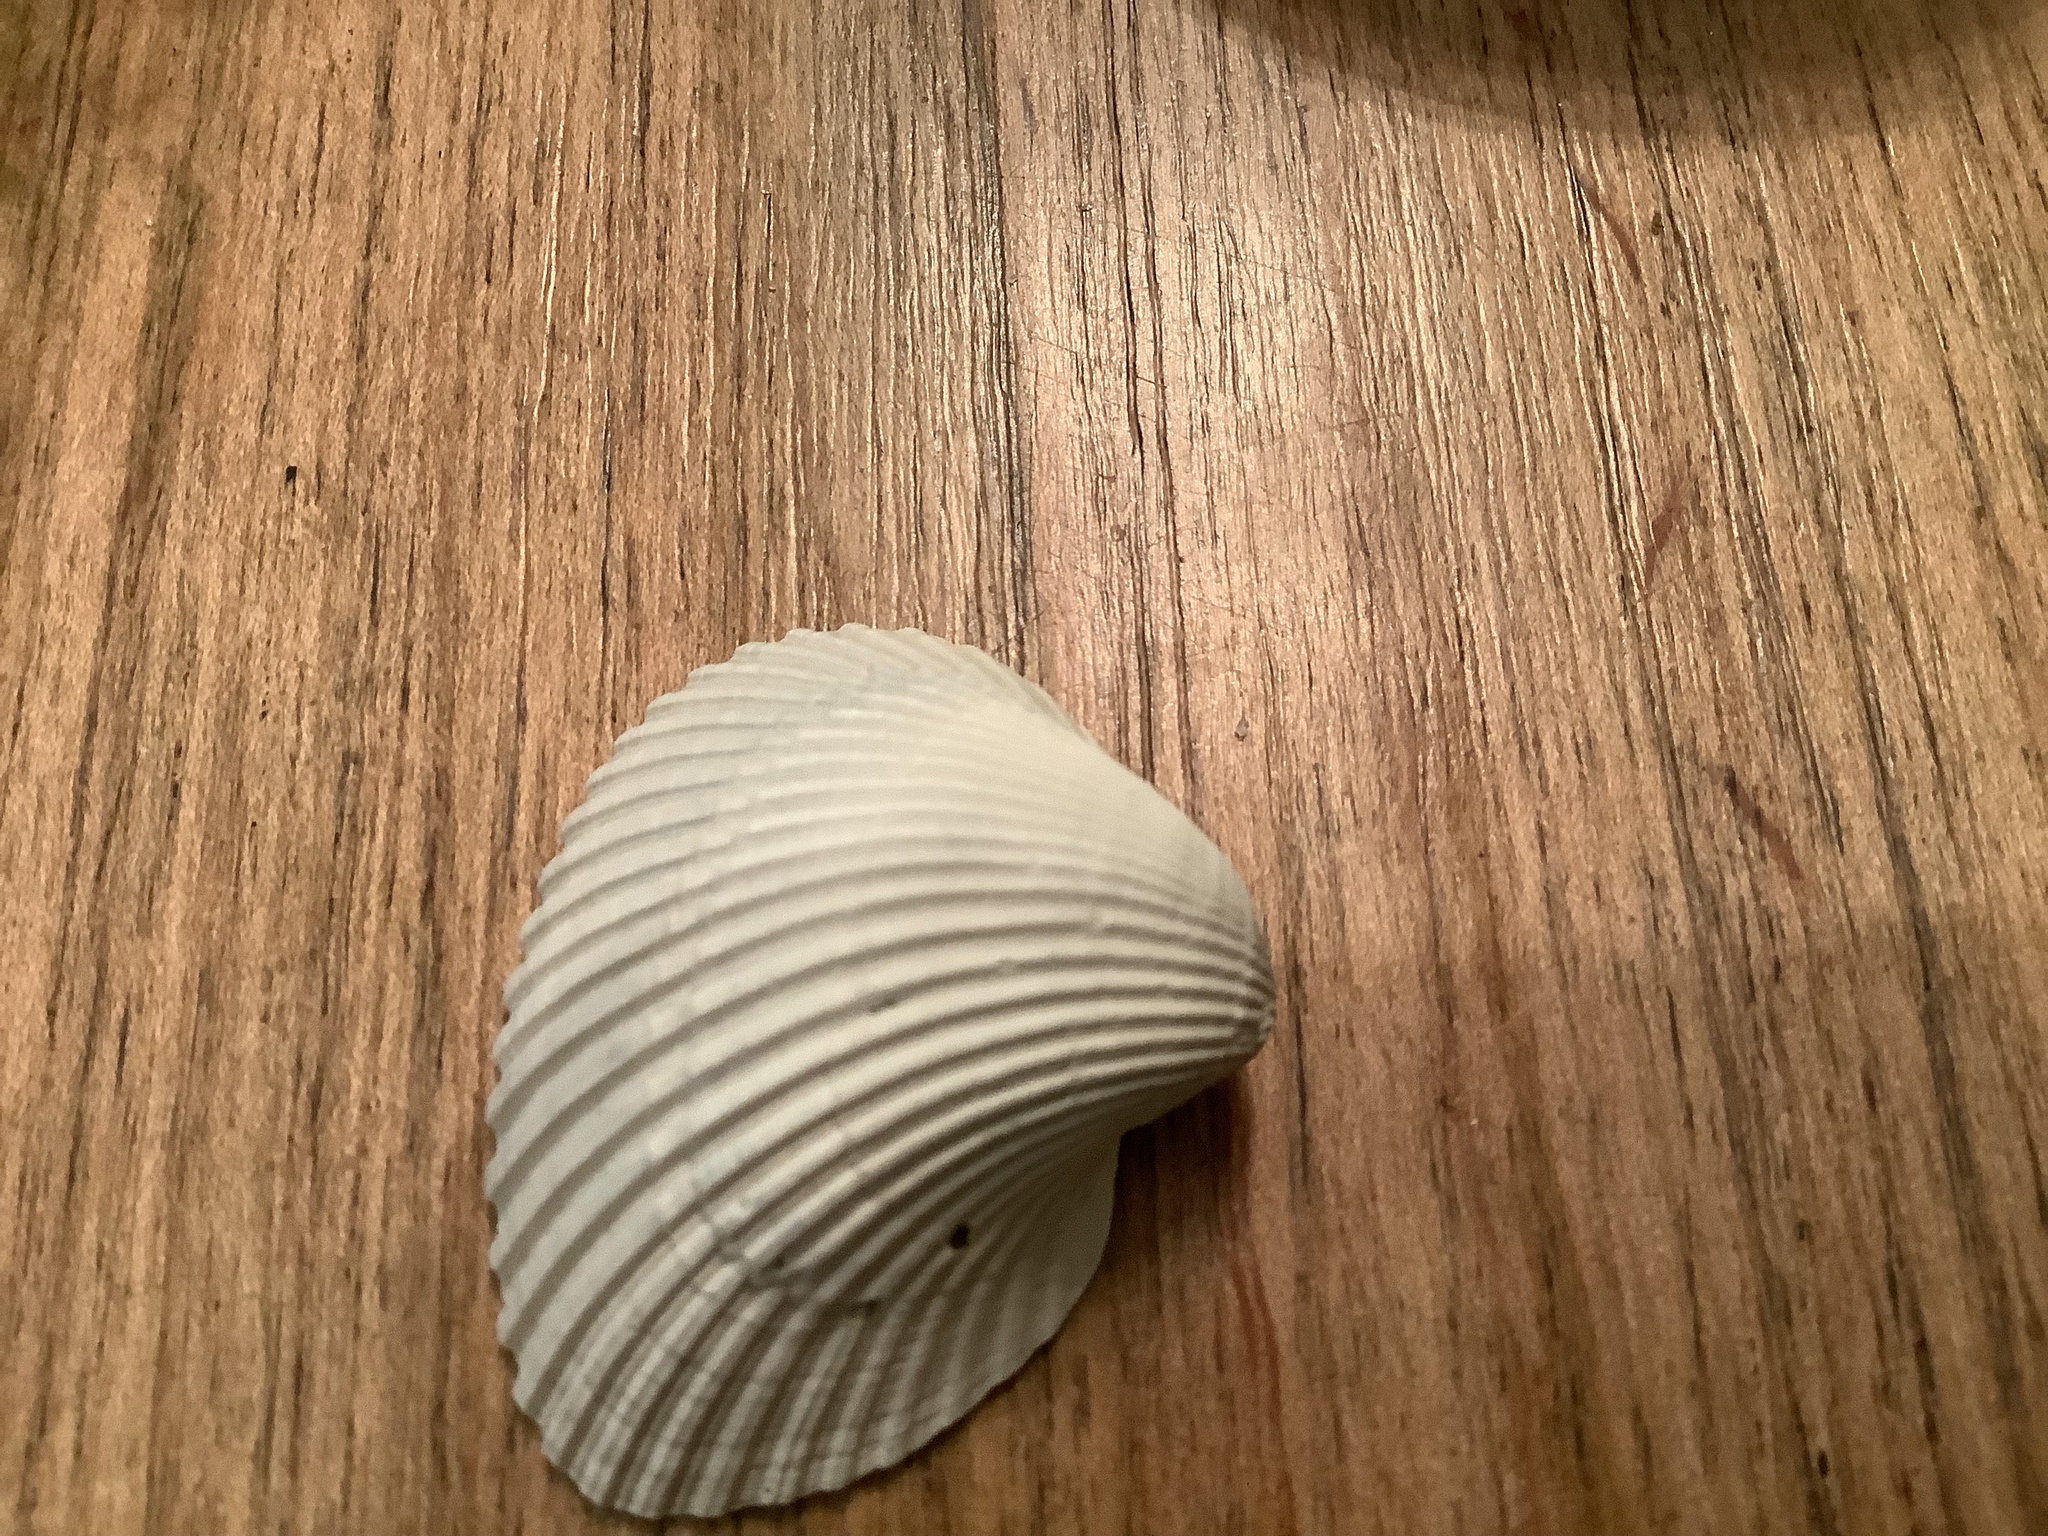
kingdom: Animalia
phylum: Mollusca
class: Bivalvia
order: Arcida
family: Noetiidae
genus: Noetia
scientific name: Noetia ponderosa
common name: Ponderous ark
